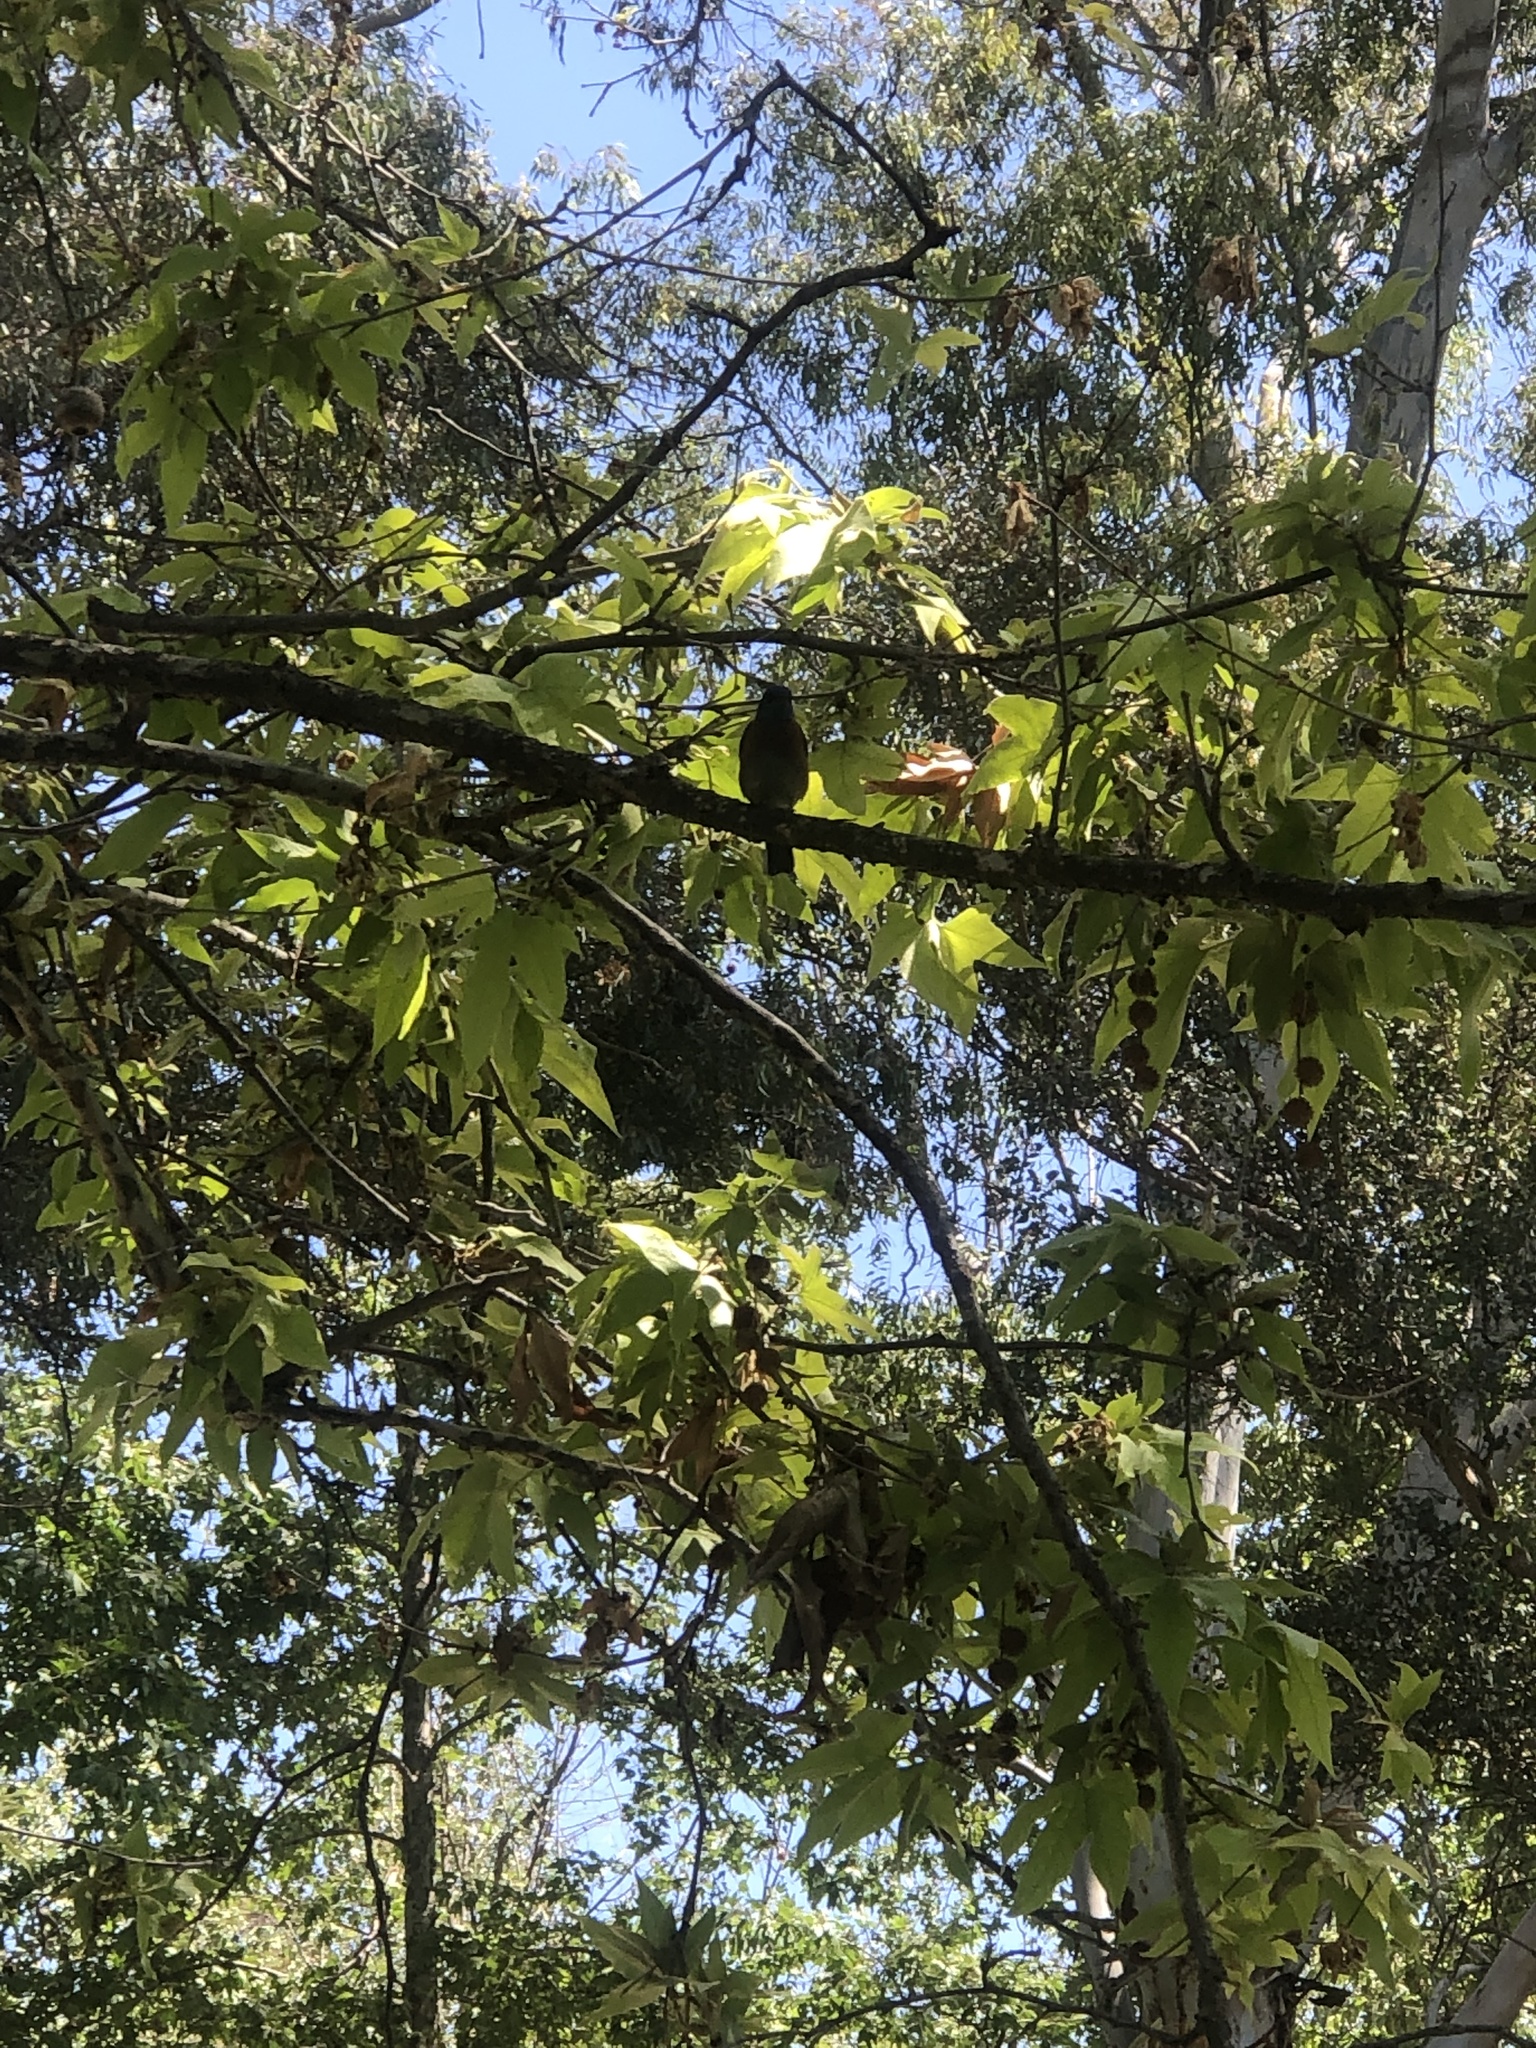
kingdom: Animalia
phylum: Chordata
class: Aves
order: Passeriformes
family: Turdidae
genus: Sialia
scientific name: Sialia mexicana
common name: Western bluebird
